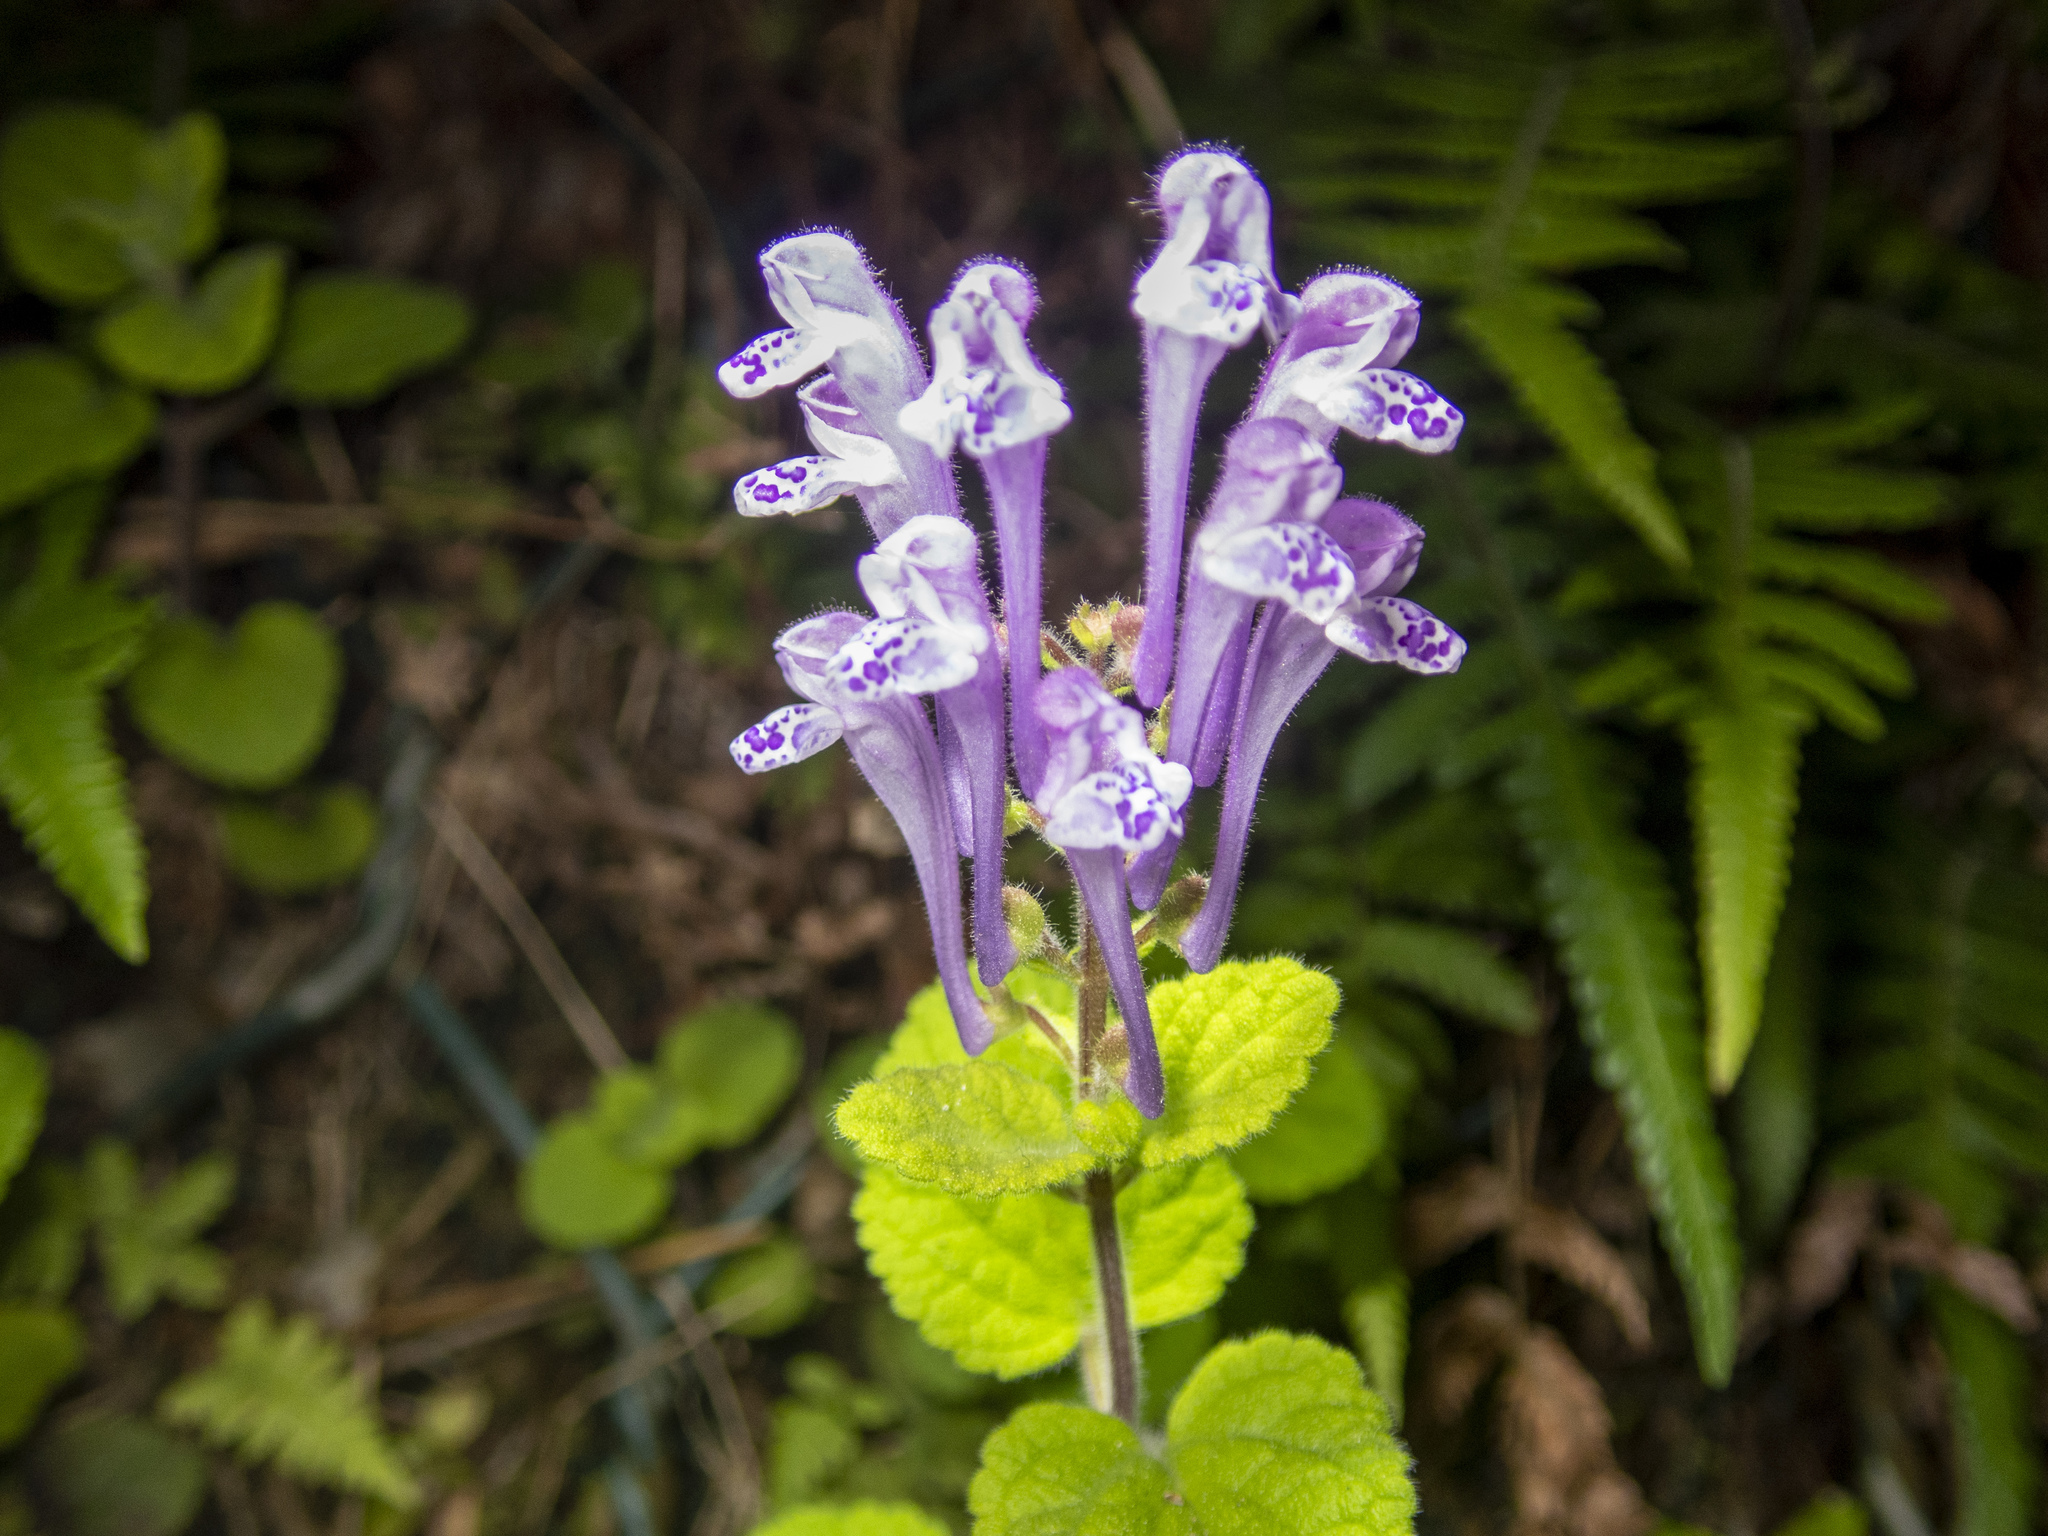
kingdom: Plantae
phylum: Tracheophyta
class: Magnoliopsida
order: Lamiales
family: Lamiaceae
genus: Scutellaria
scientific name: Scutellaria indica
